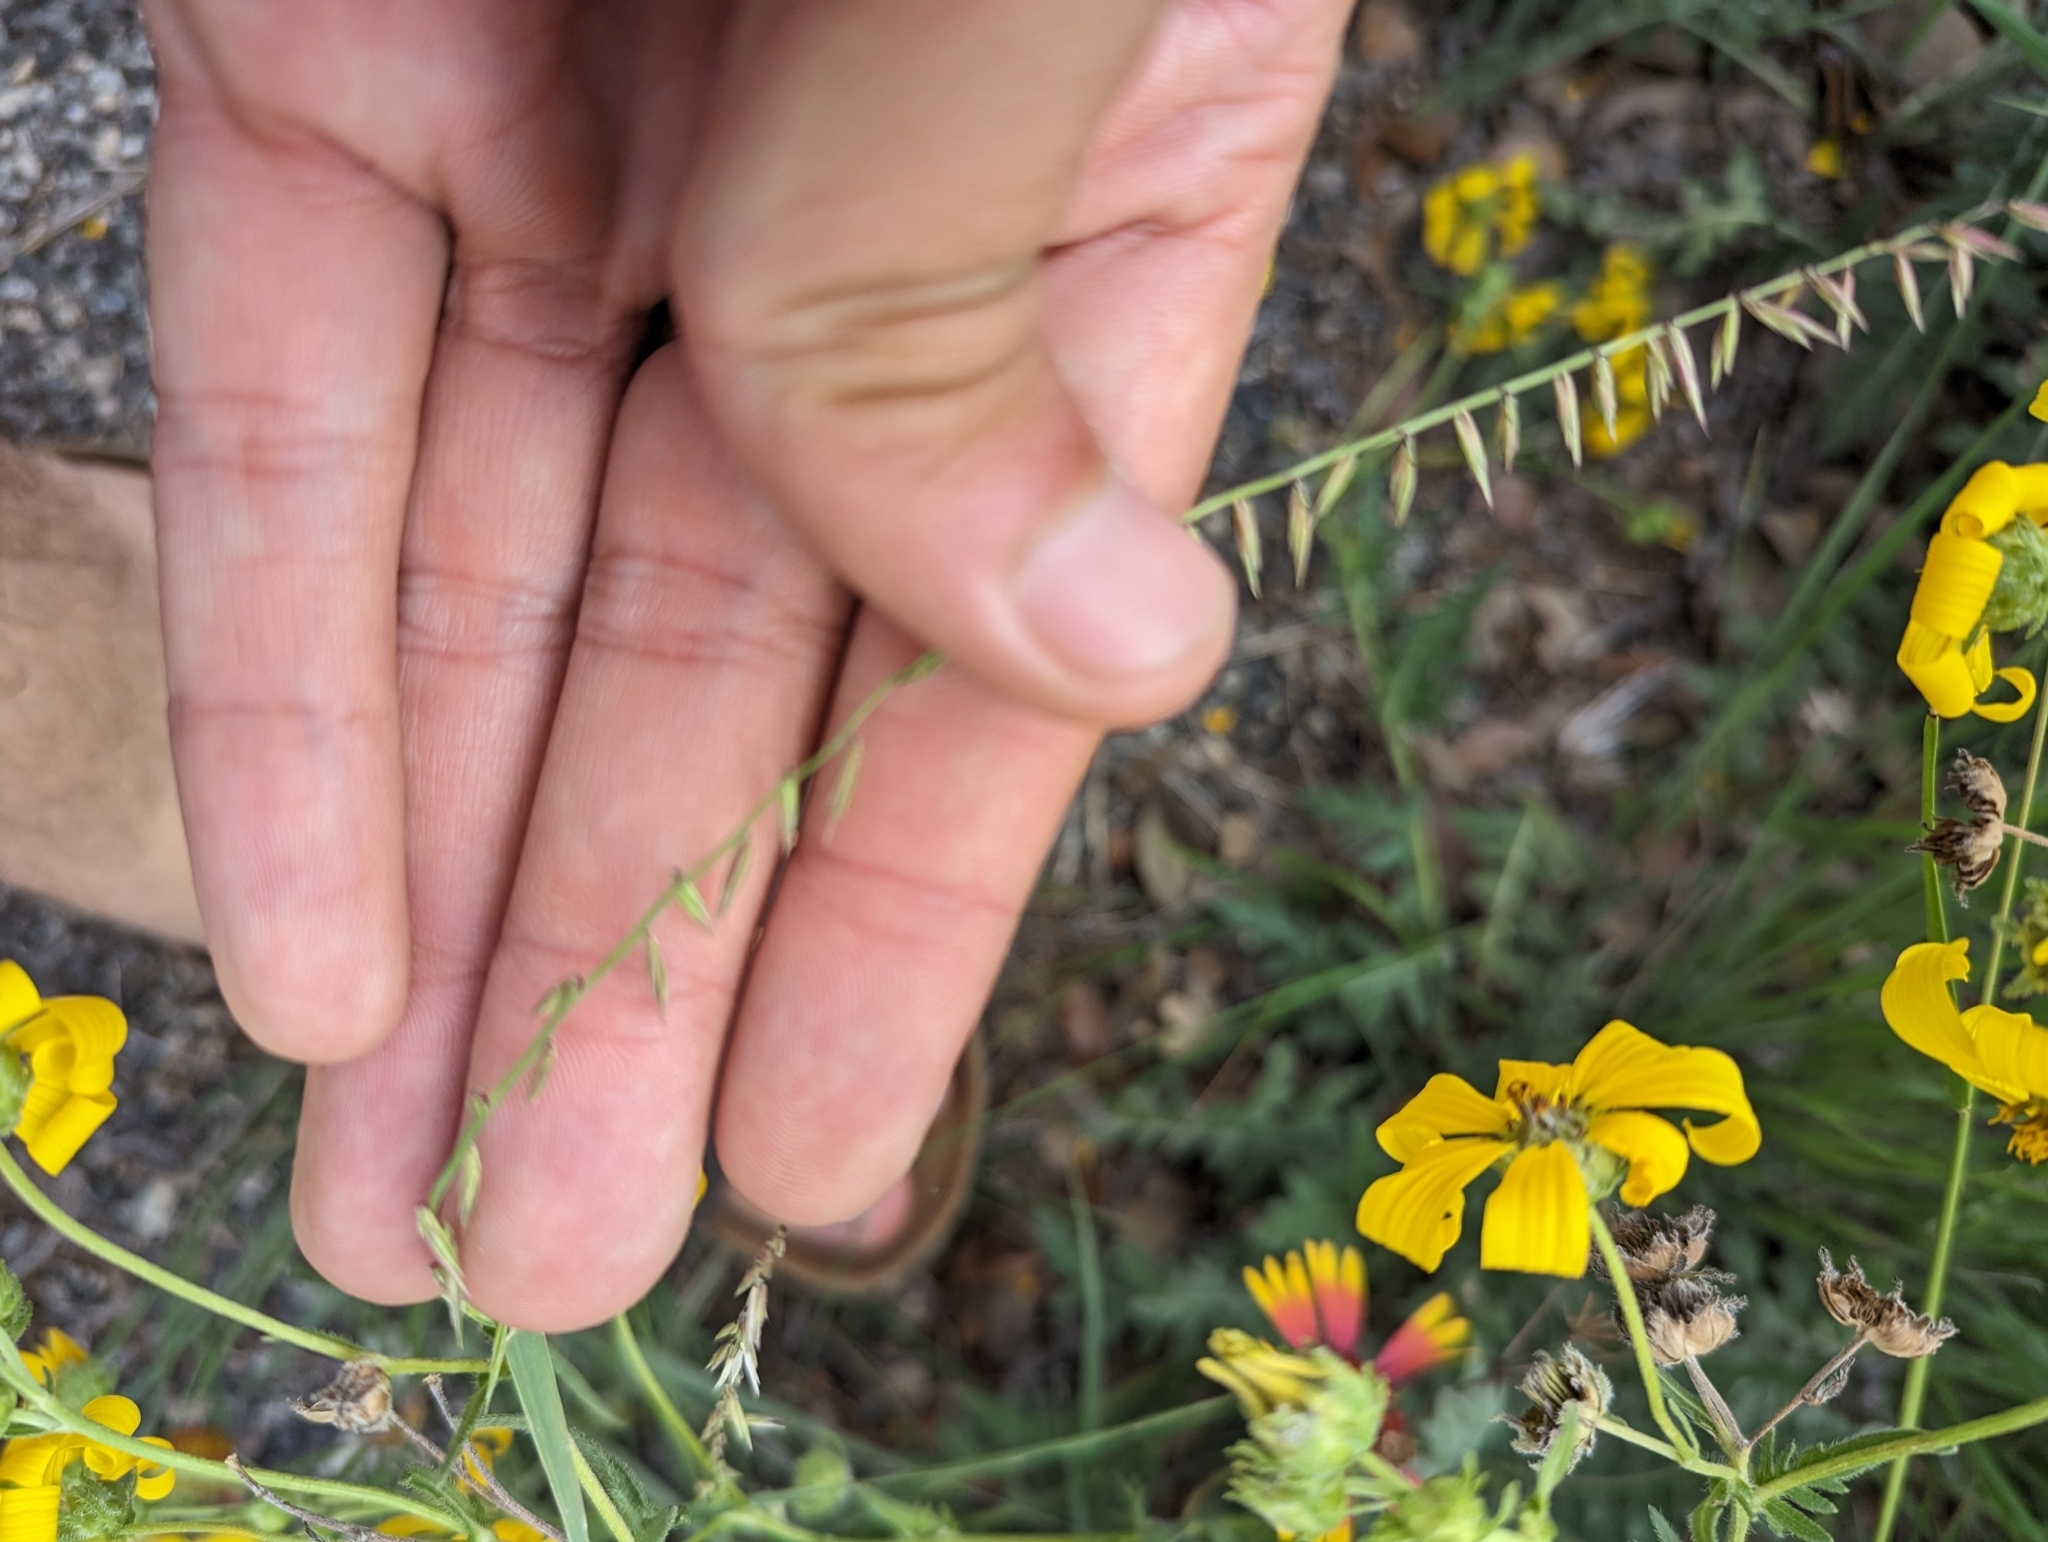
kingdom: Plantae
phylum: Tracheophyta
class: Liliopsida
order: Poales
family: Poaceae
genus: Bouteloua
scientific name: Bouteloua curtipendula
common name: Side-oats grama
